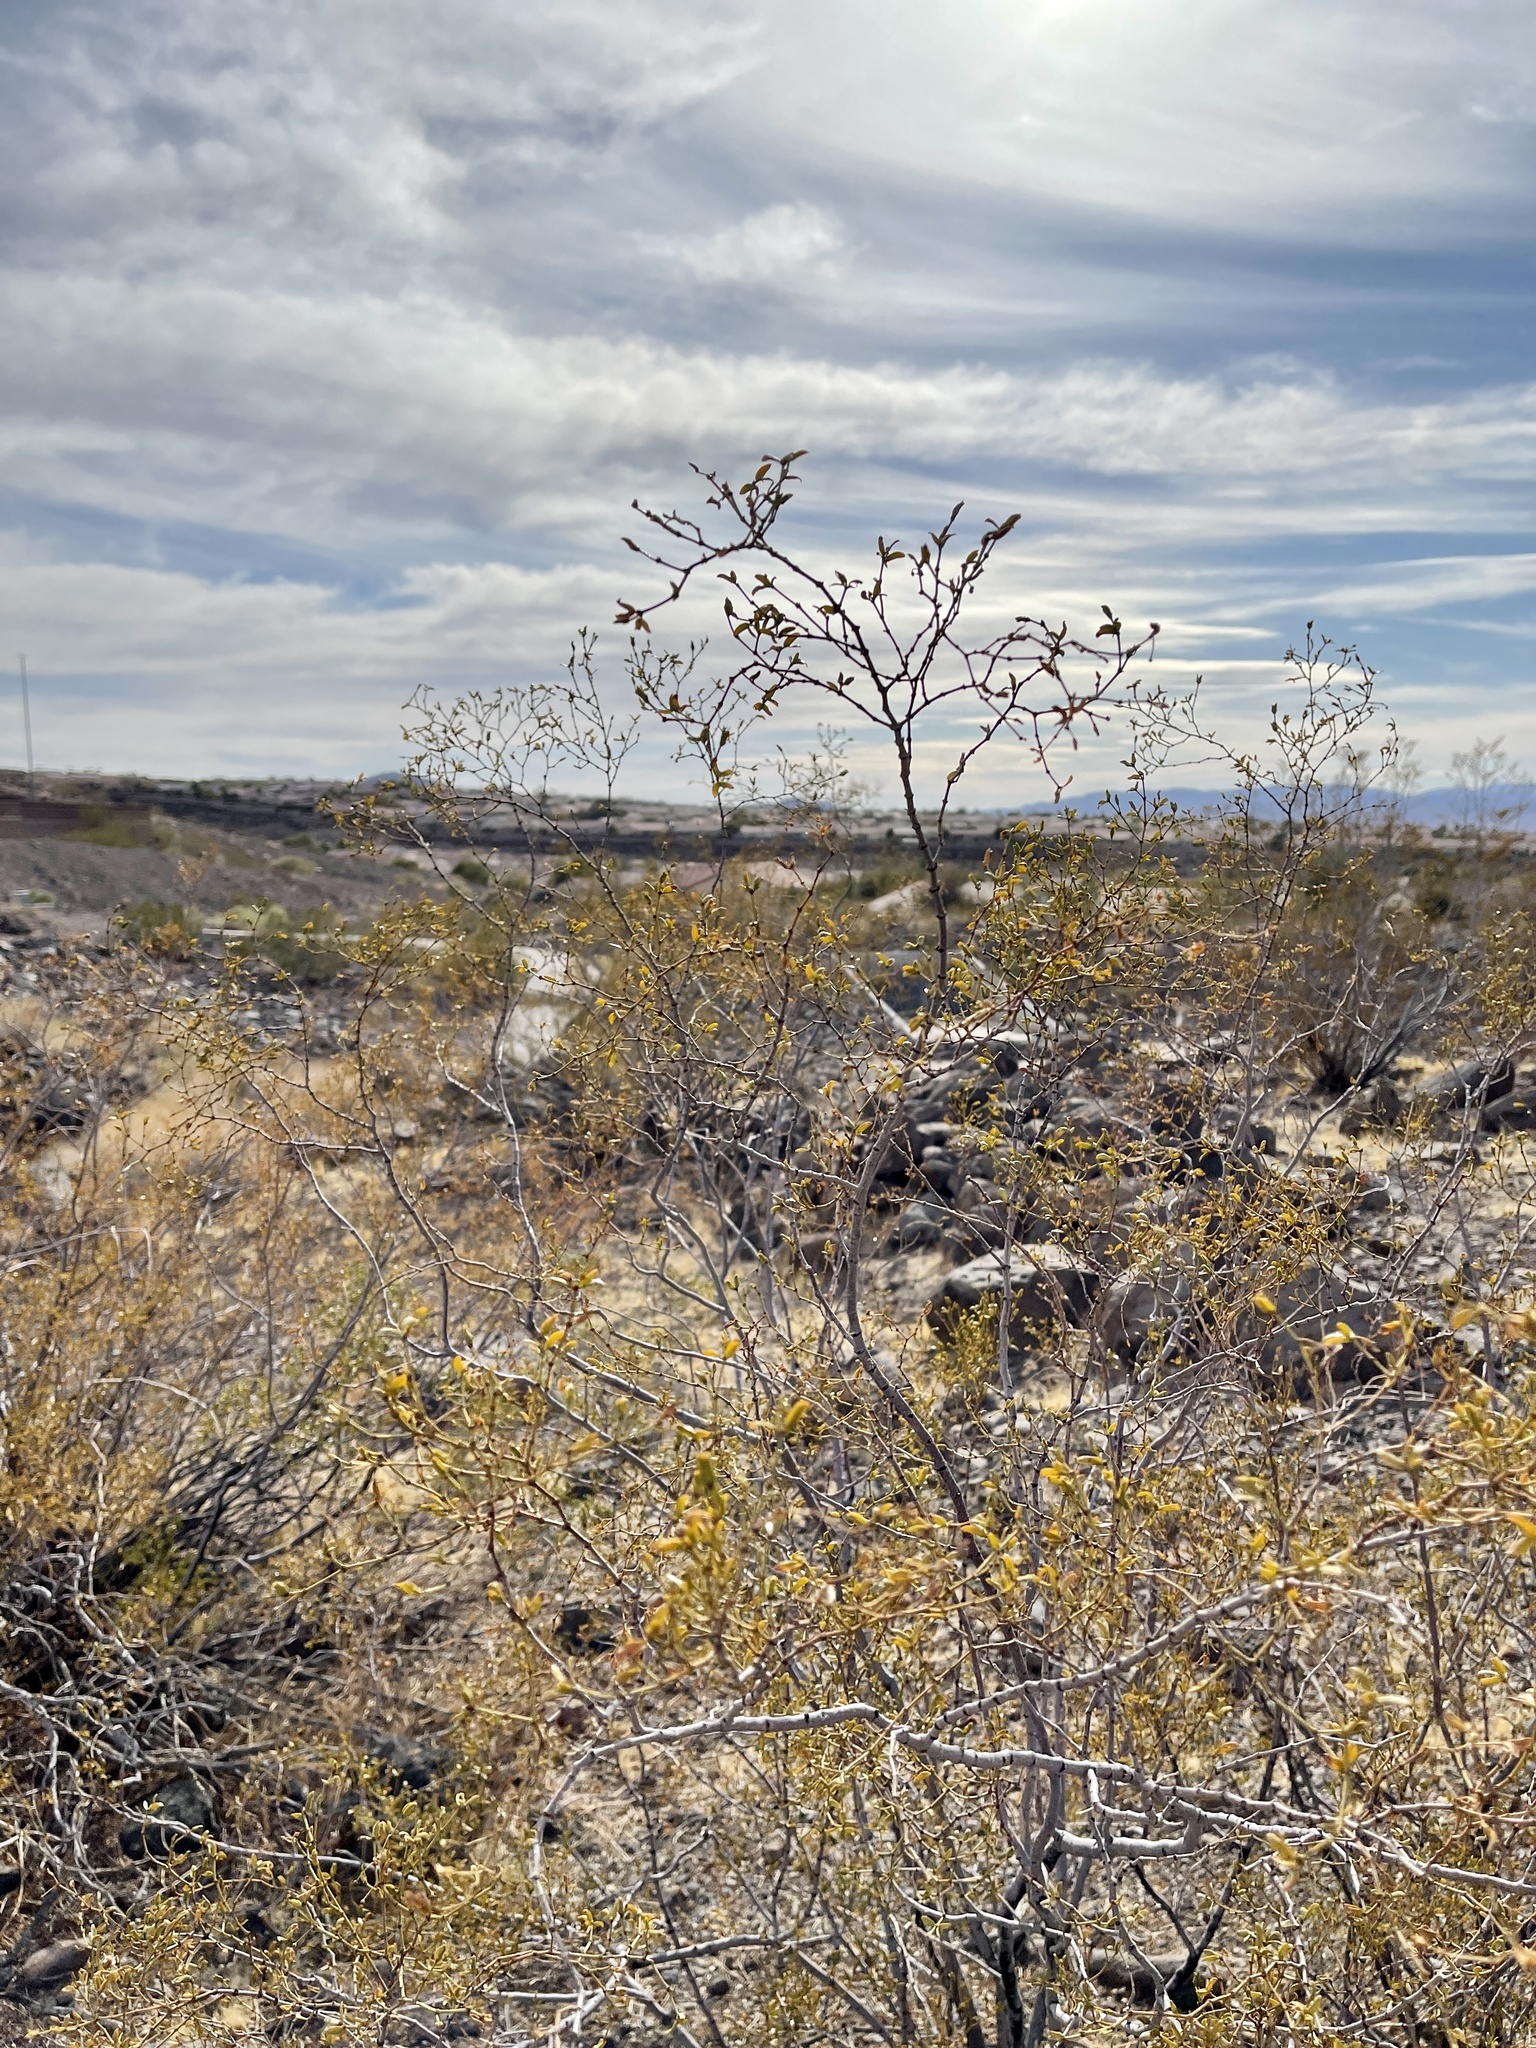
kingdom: Plantae
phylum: Tracheophyta
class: Magnoliopsida
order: Zygophyllales
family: Zygophyllaceae
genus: Larrea
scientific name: Larrea tridentata
